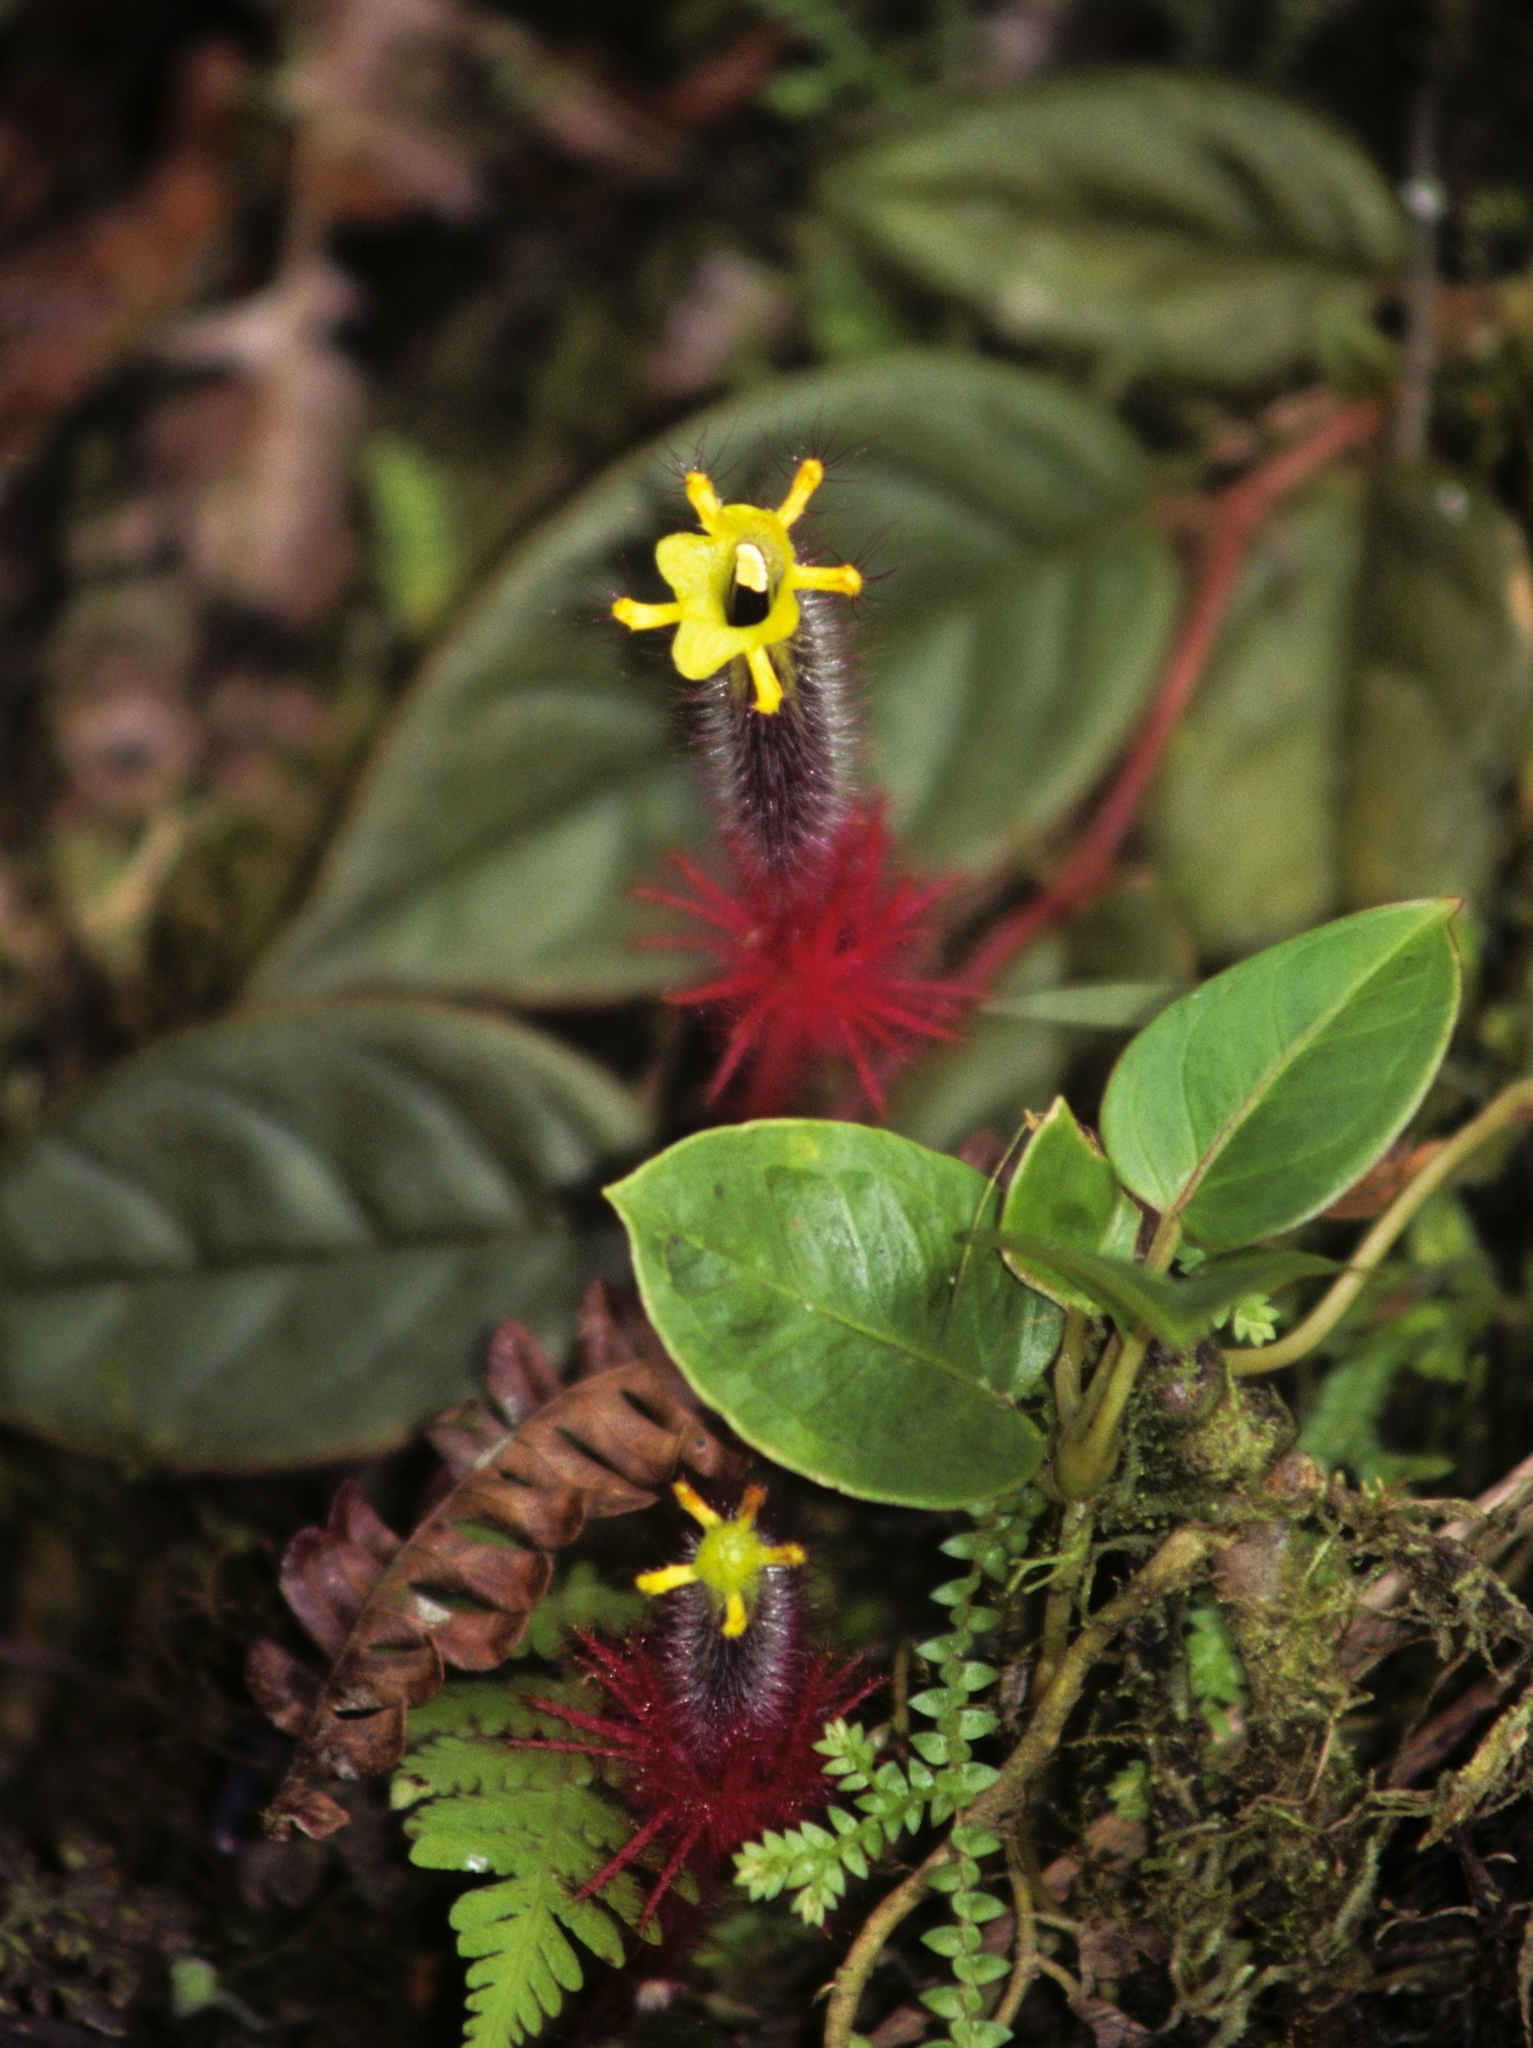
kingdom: Plantae
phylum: Tracheophyta
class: Magnoliopsida
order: Lamiales
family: Gesneriaceae
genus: Columnea
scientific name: Columnea minor
